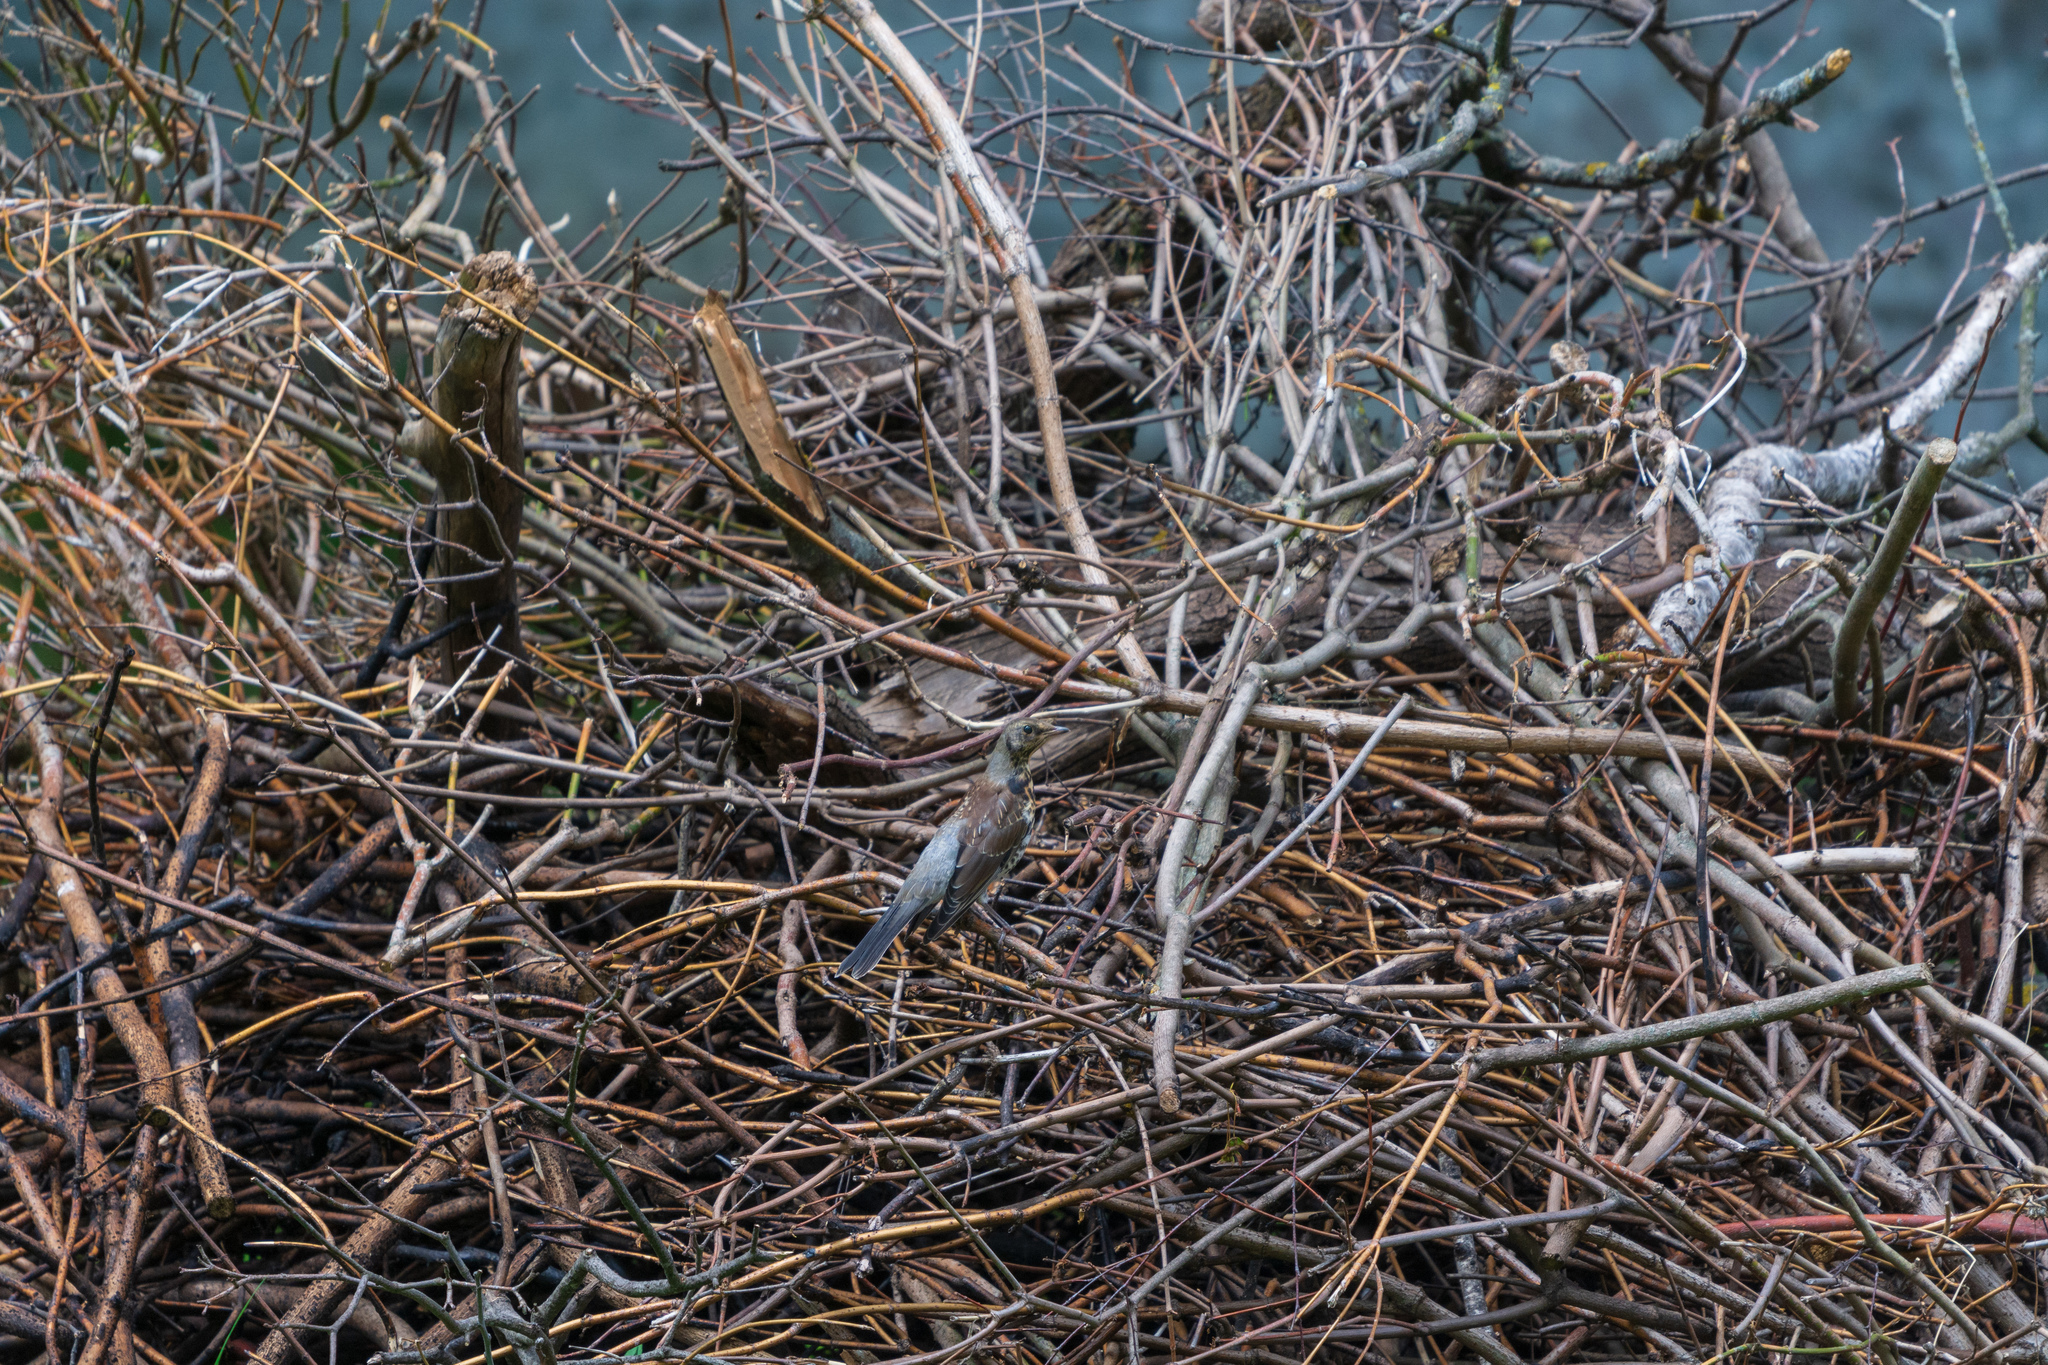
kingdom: Animalia
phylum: Chordata
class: Aves
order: Passeriformes
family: Turdidae
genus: Turdus
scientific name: Turdus pilaris
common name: Fieldfare
